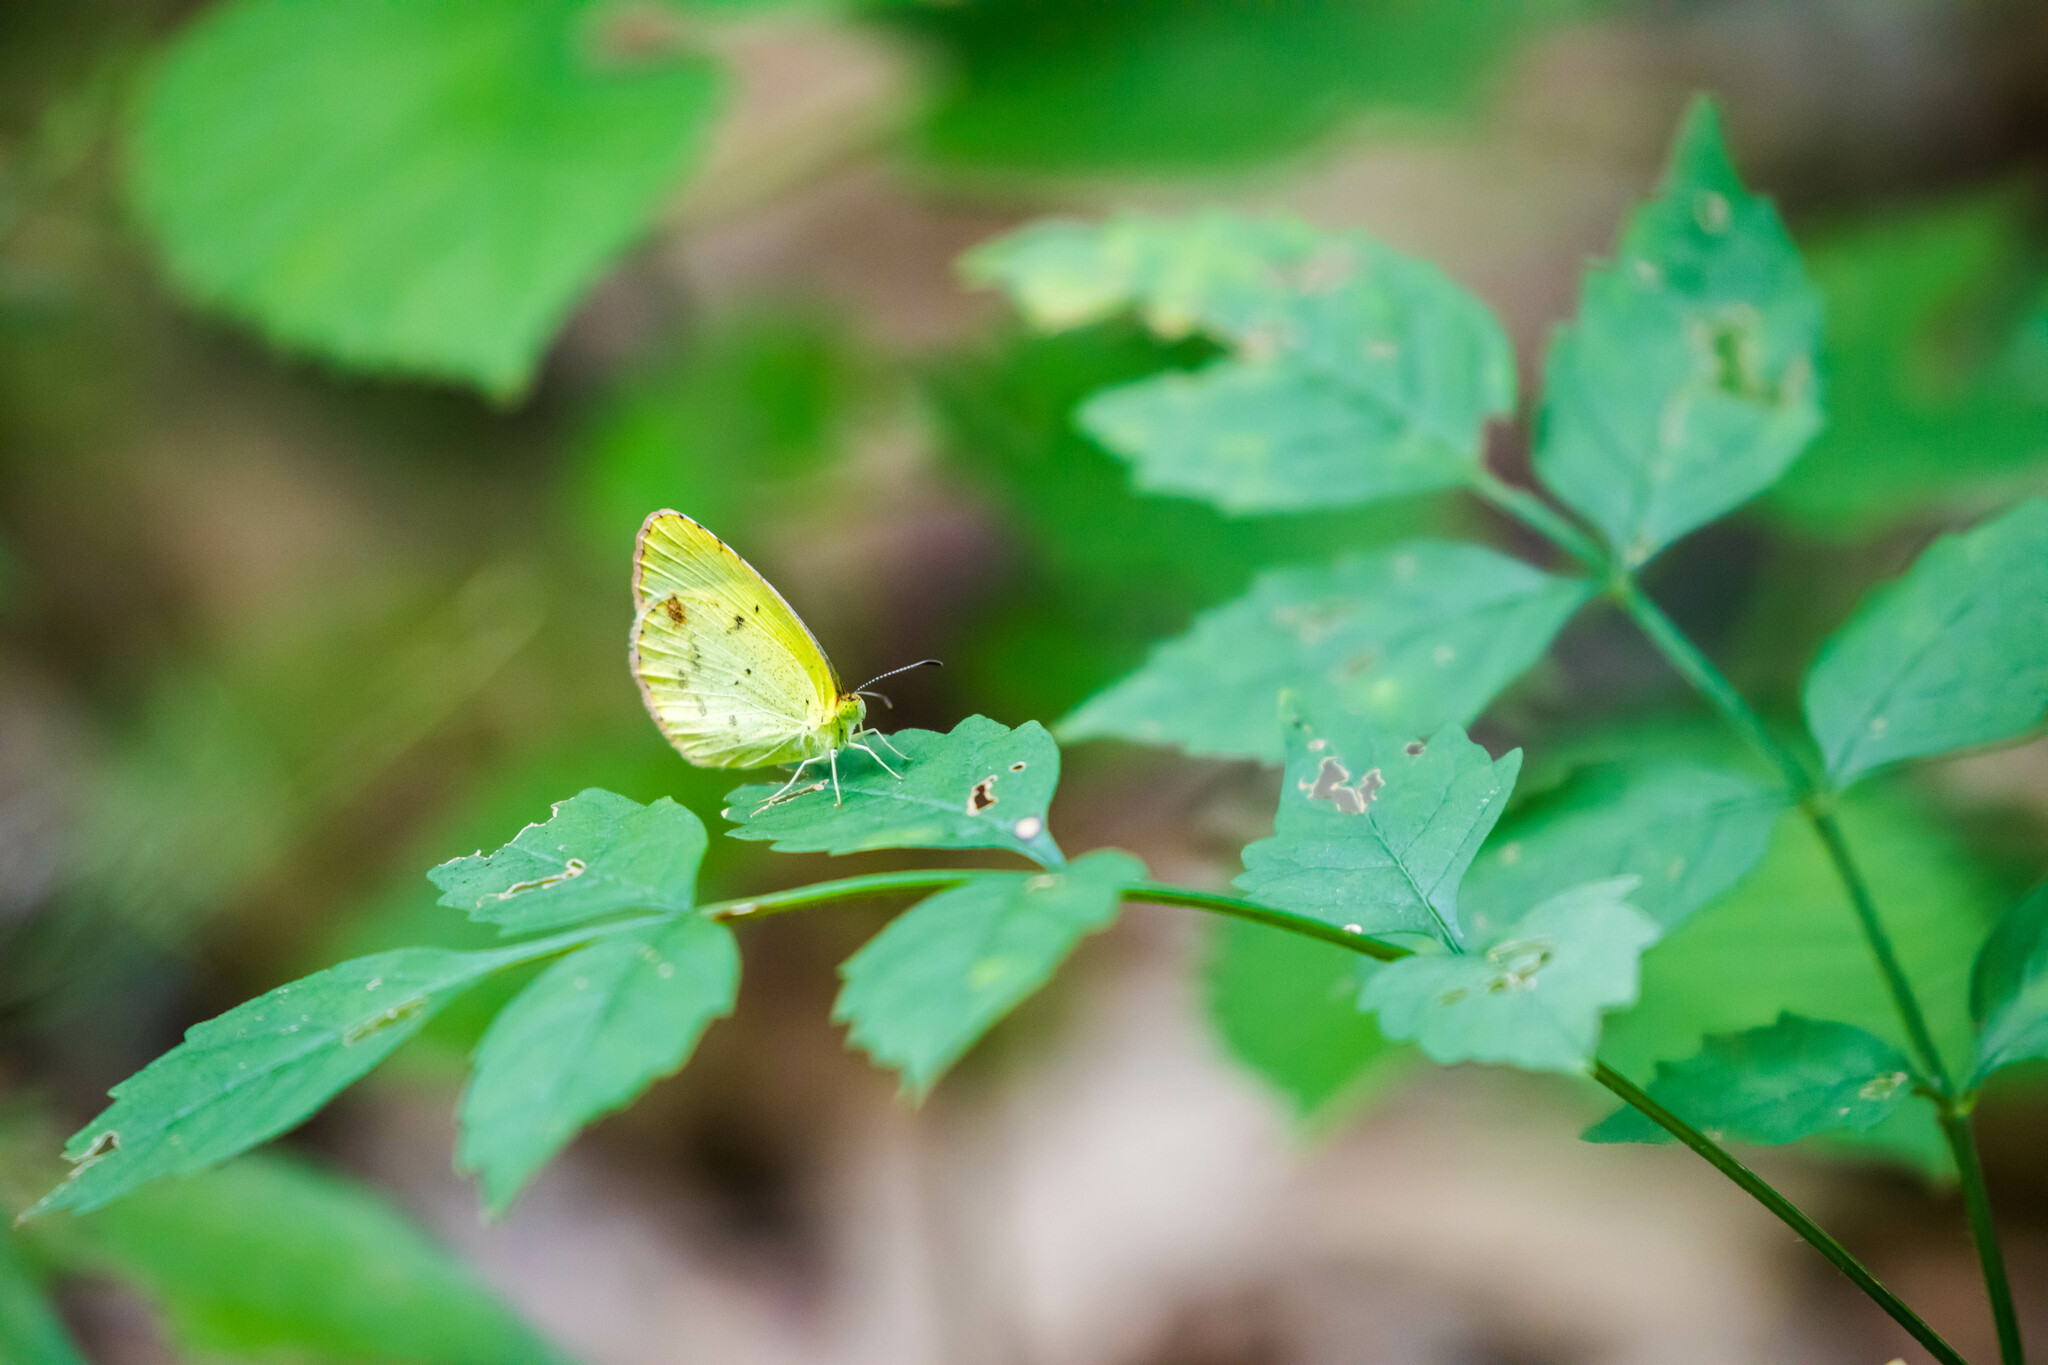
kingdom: Animalia
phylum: Arthropoda
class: Insecta
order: Lepidoptera
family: Pieridae
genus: Pyrisitia
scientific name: Pyrisitia lisa
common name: Little yellow
